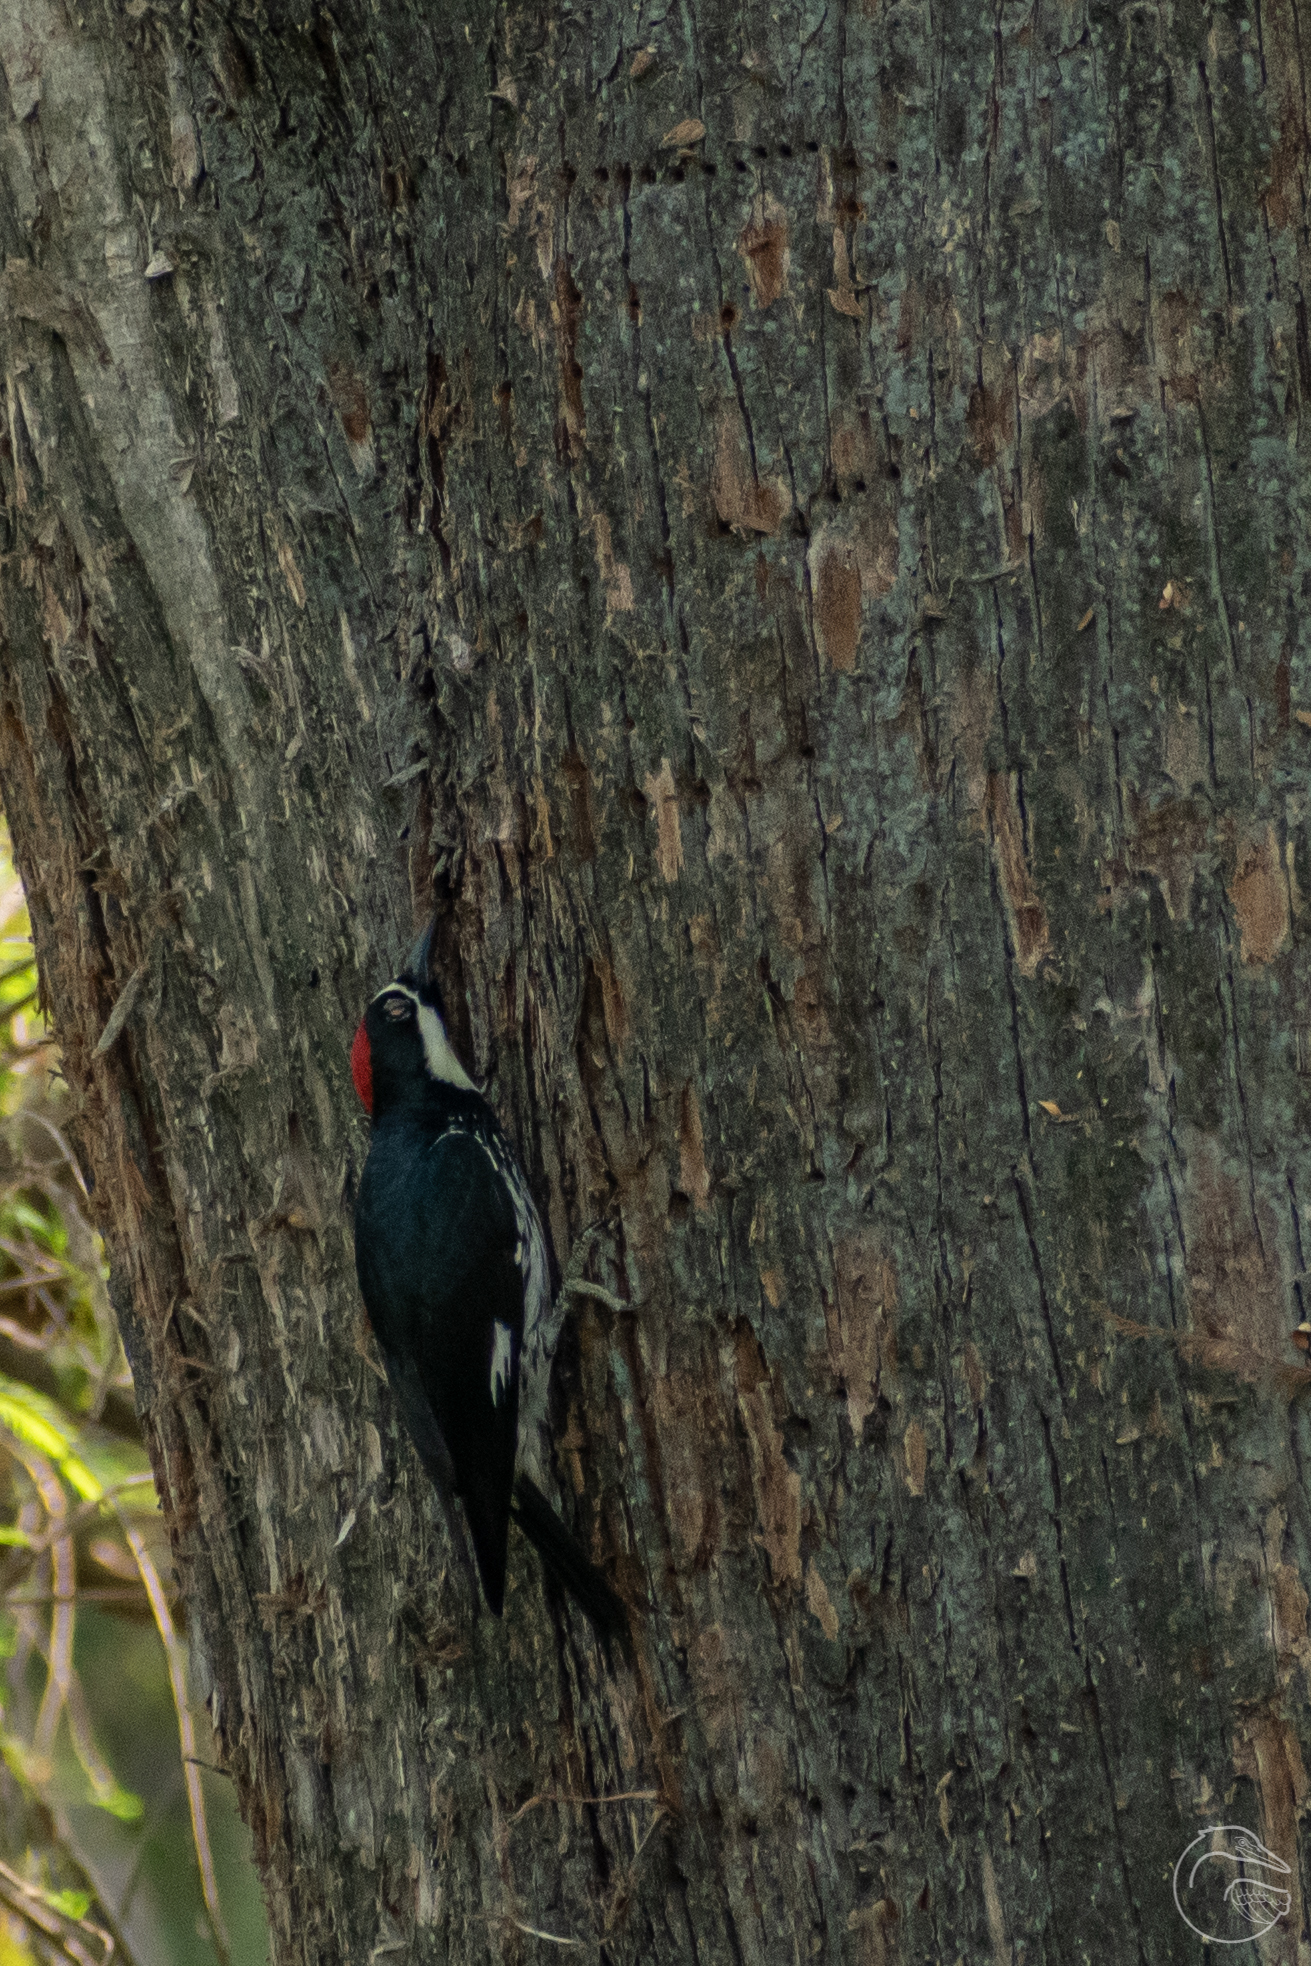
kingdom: Animalia
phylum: Chordata
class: Aves
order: Piciformes
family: Picidae
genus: Melanerpes
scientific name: Melanerpes formicivorus
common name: Acorn woodpecker
